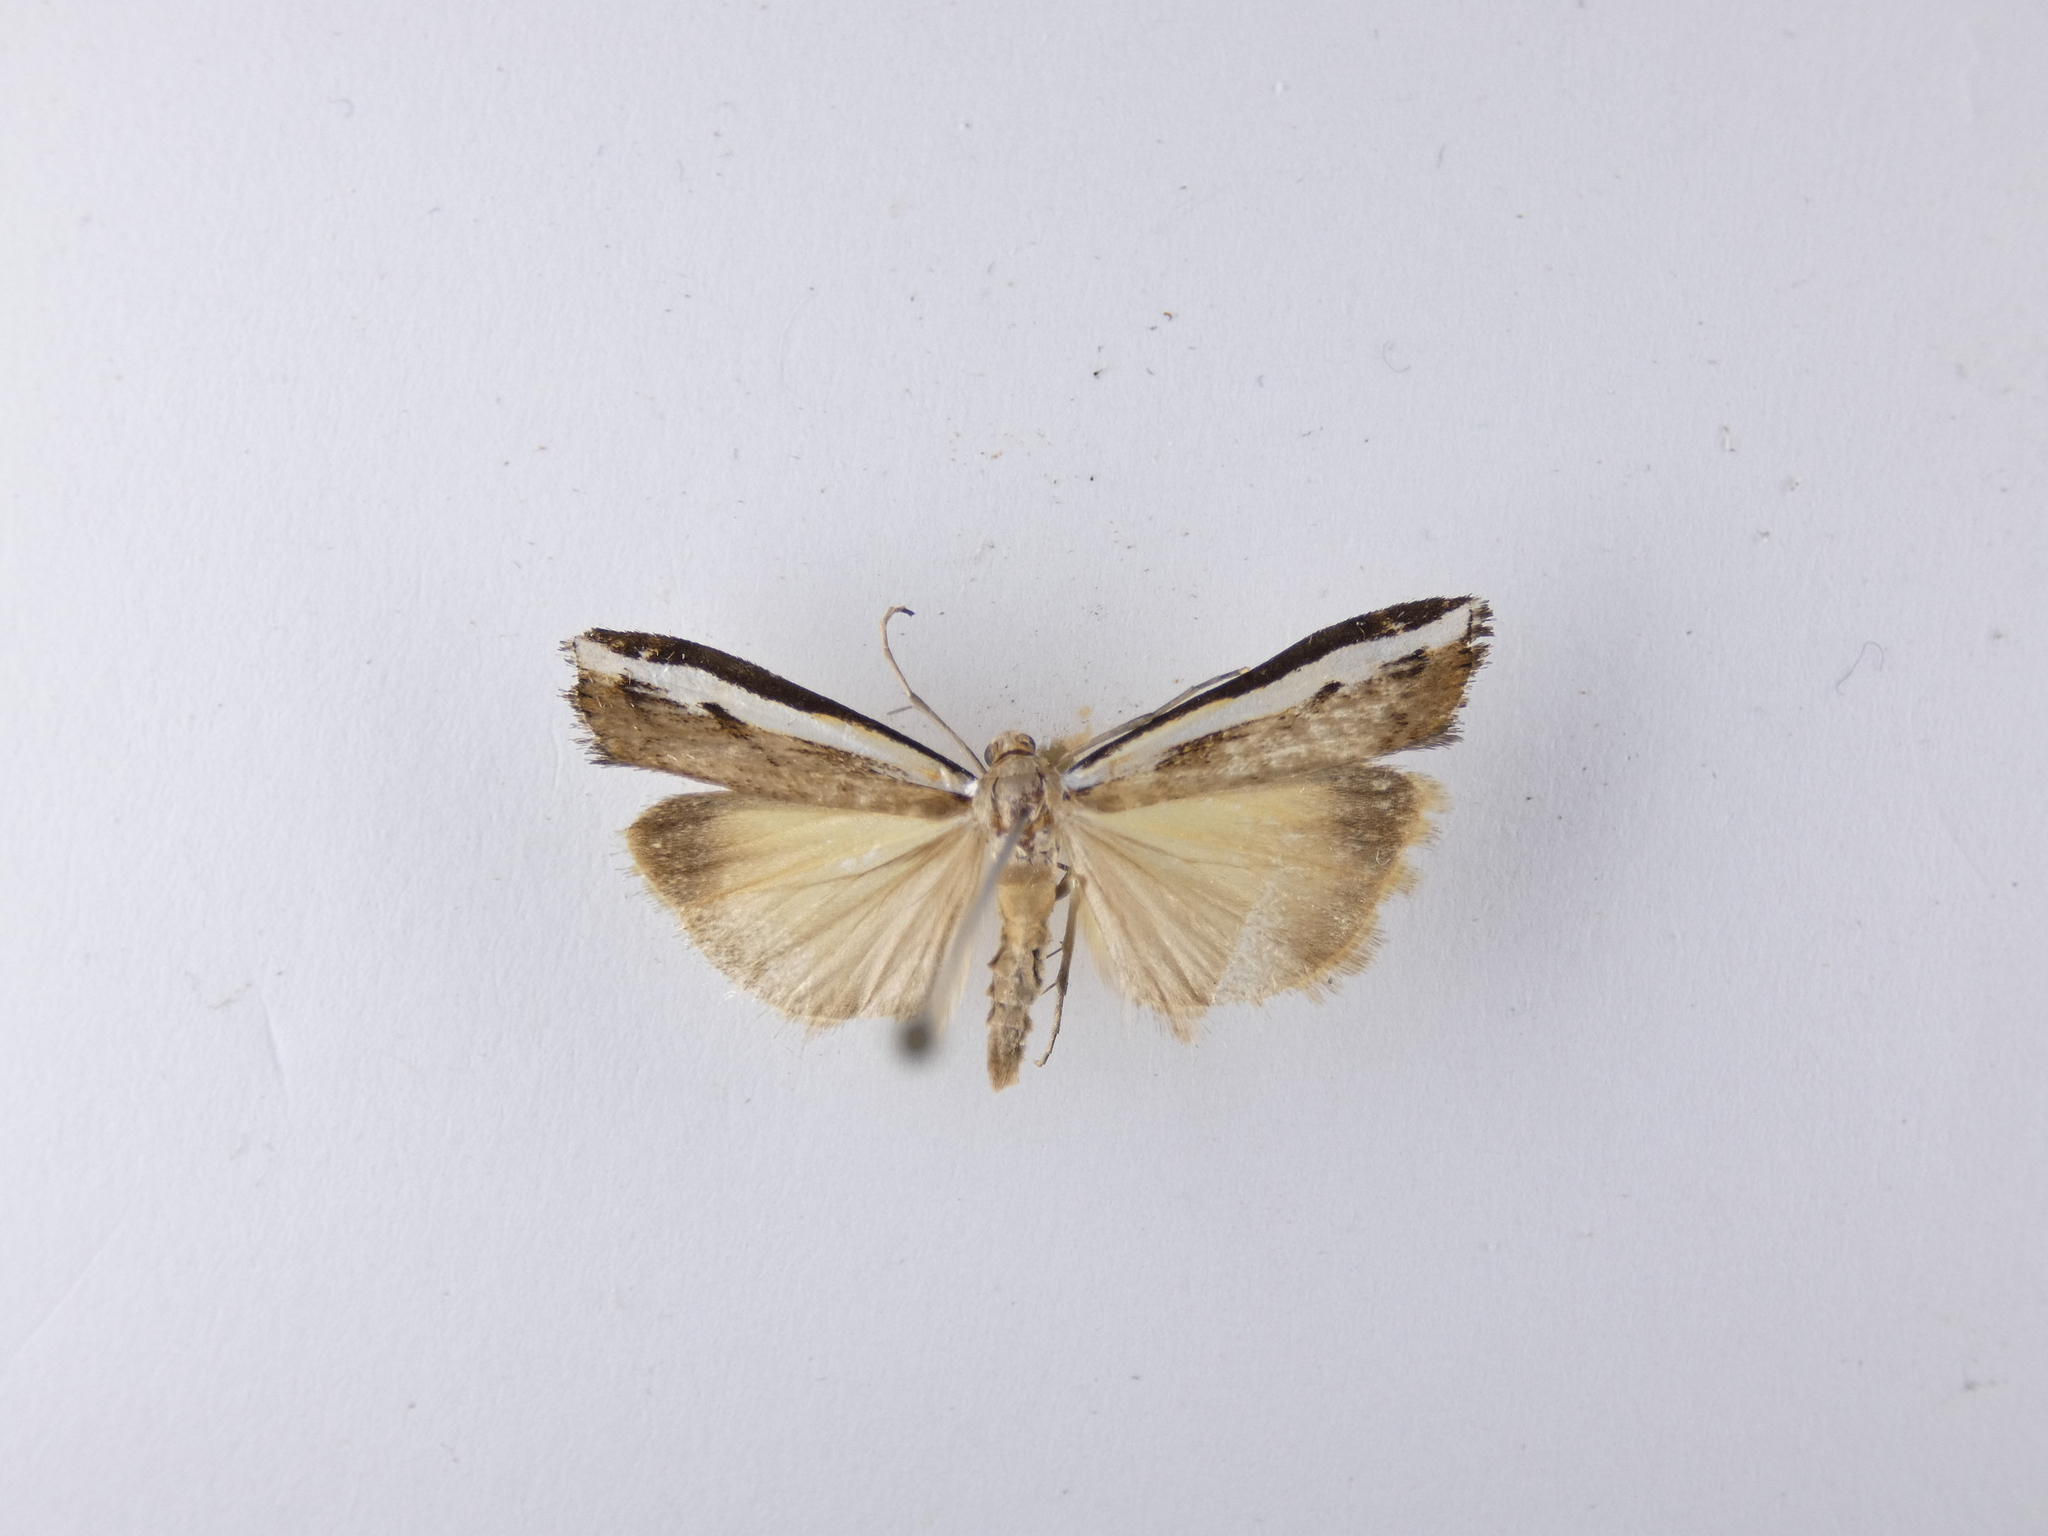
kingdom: Animalia
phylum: Arthropoda
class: Insecta
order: Lepidoptera
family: Crambidae
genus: Orocrambus
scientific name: Orocrambus flexuosellus
